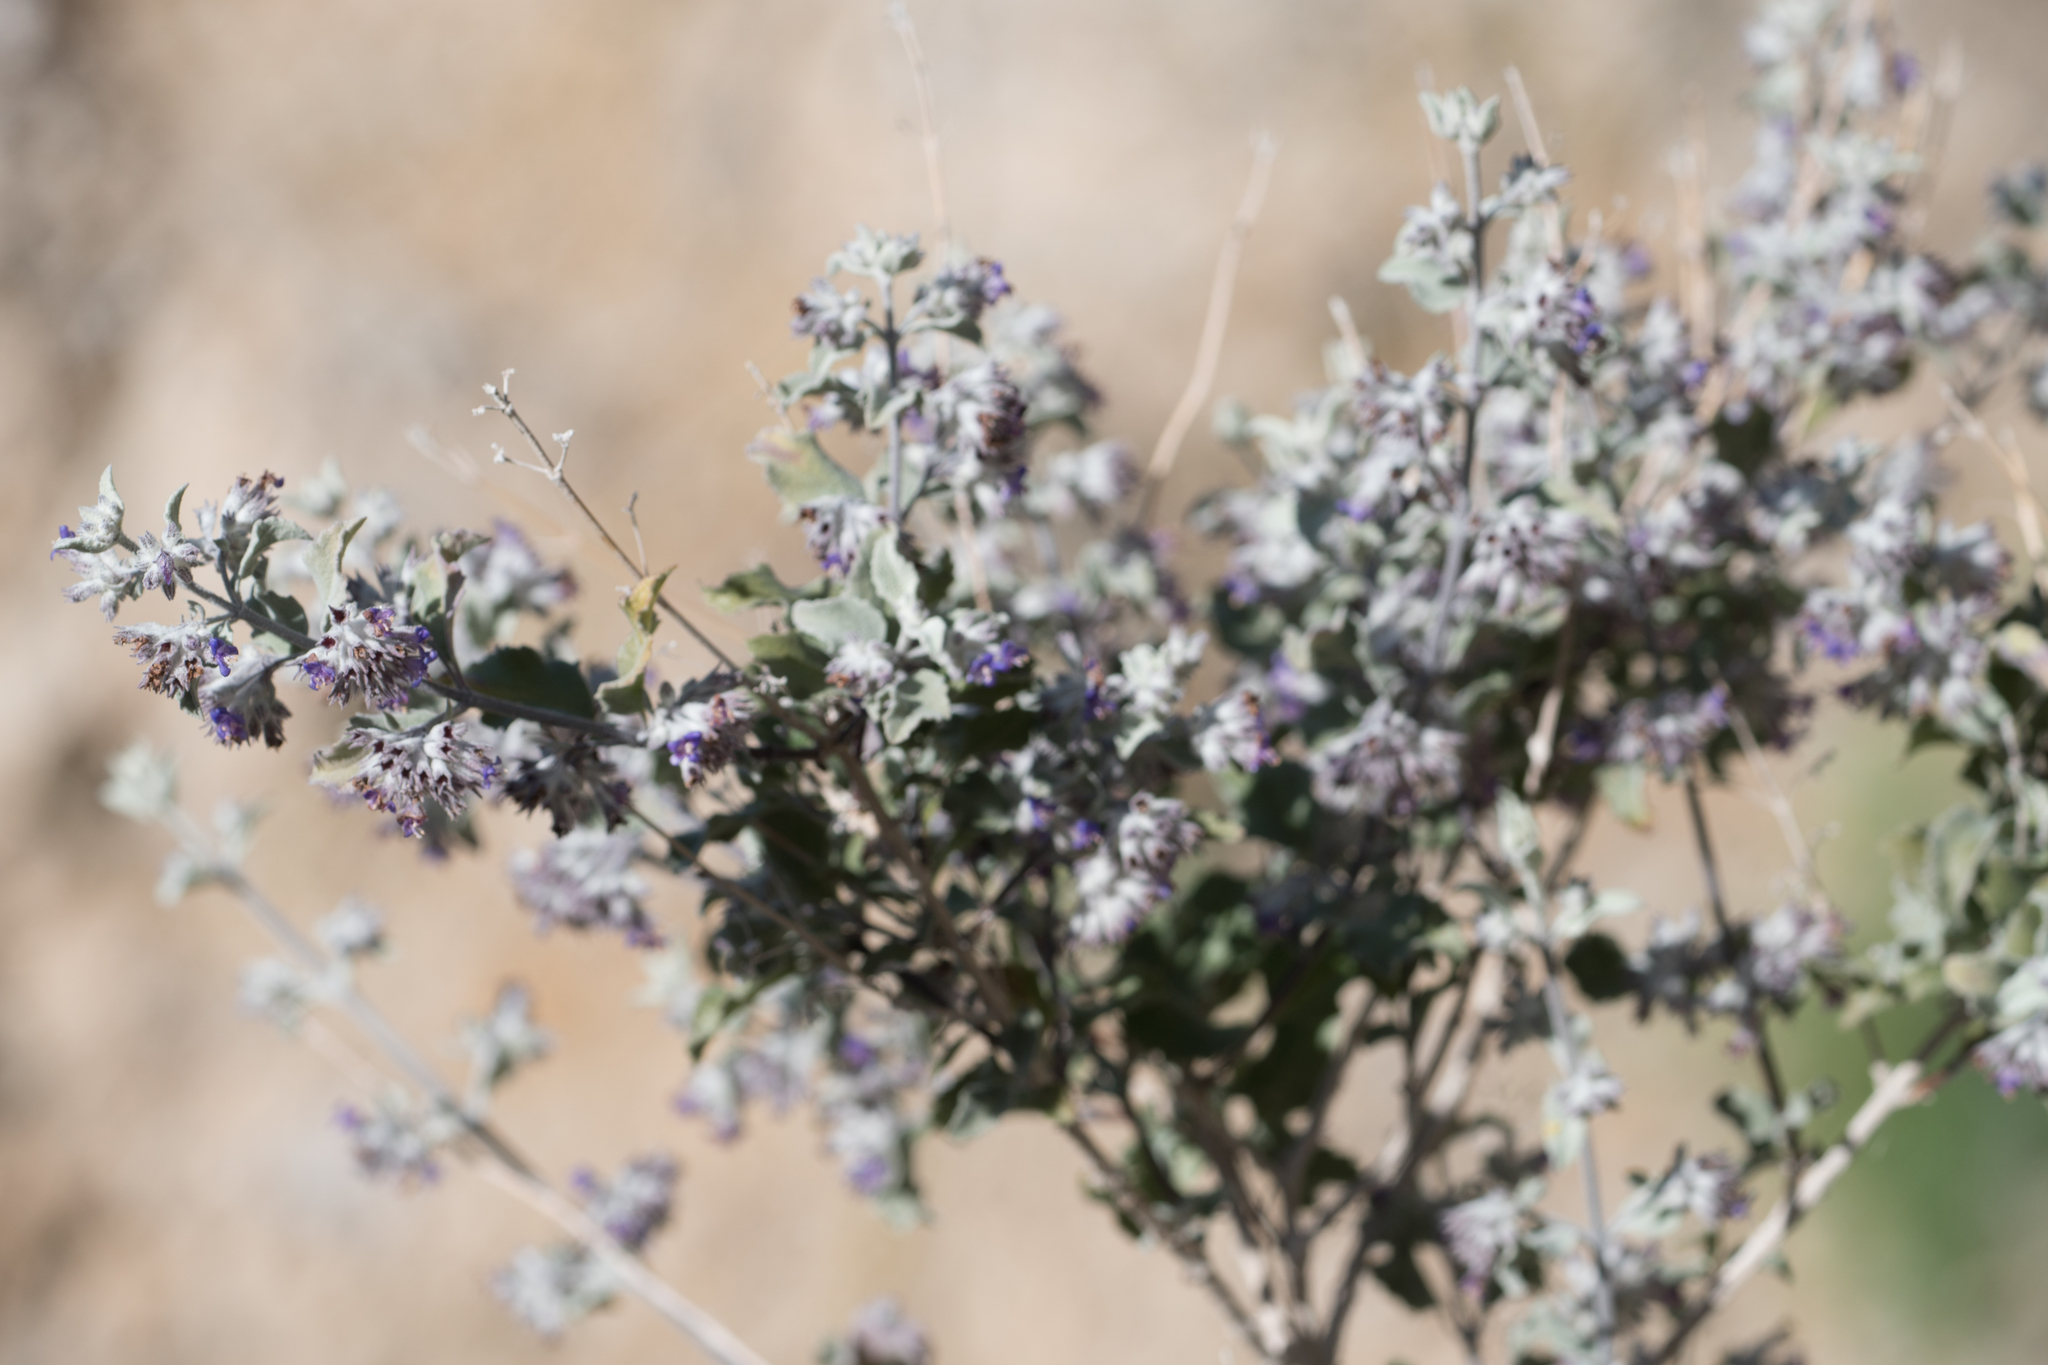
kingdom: Plantae
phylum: Tracheophyta
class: Magnoliopsida
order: Lamiales
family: Lamiaceae
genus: Condea
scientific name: Condea emoryi
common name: Chia
